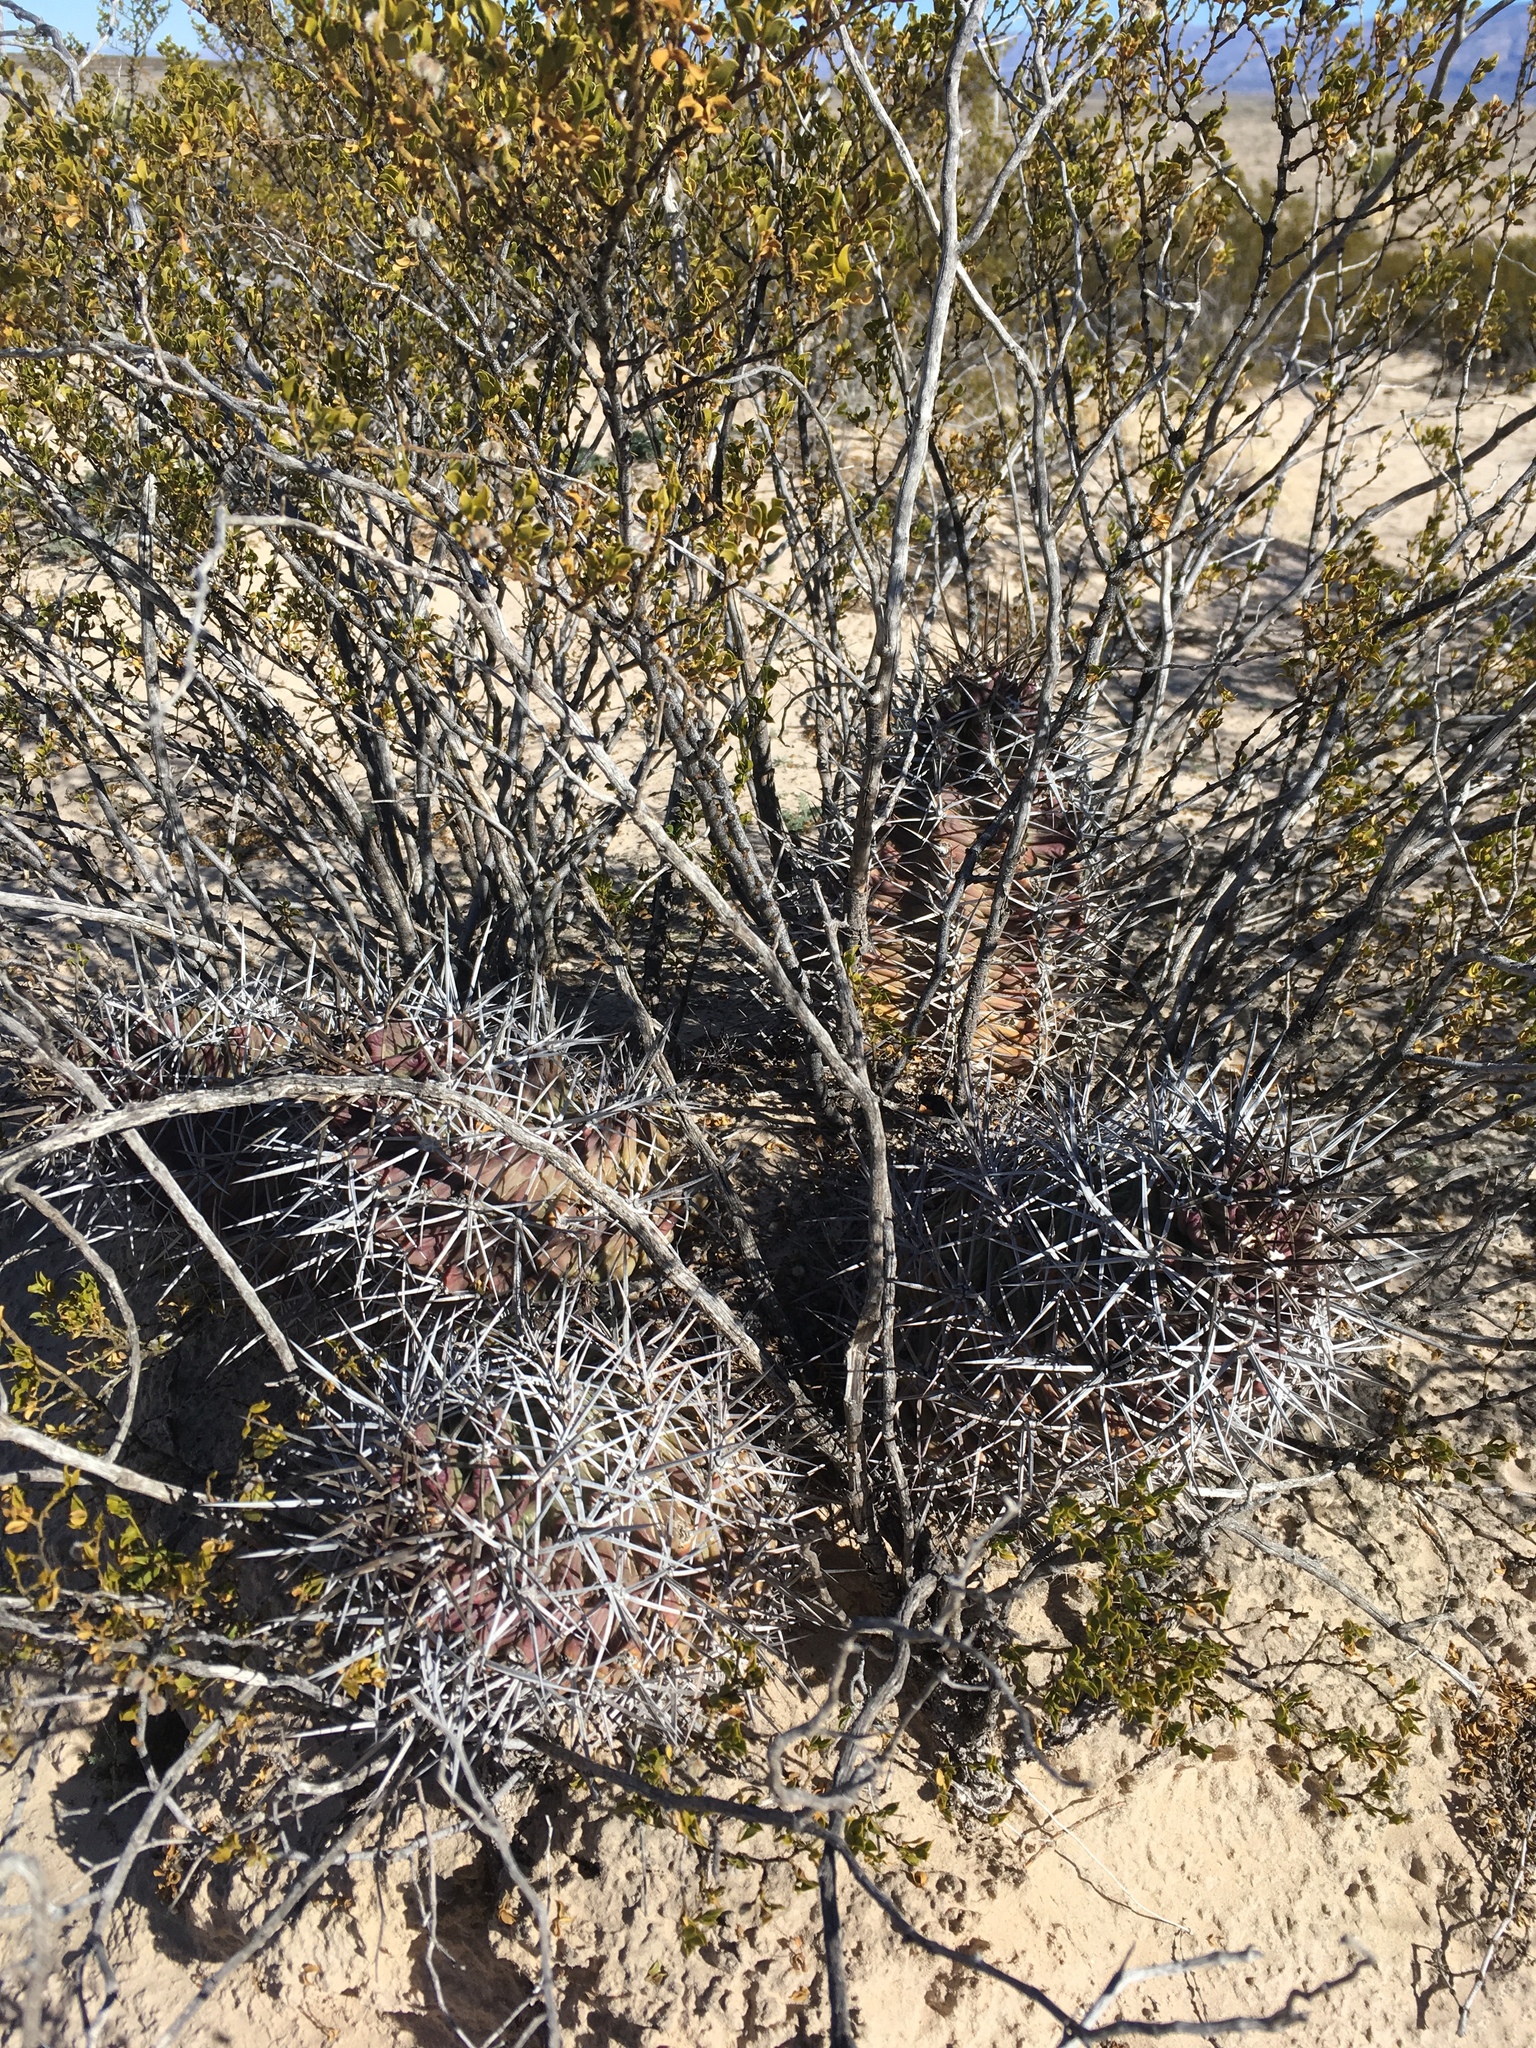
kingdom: Plantae
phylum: Tracheophyta
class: Magnoliopsida
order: Caryophyllales
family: Cactaceae
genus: Echinocereus
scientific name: Echinocereus triglochidiatus
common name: Claretcup hedgehog
